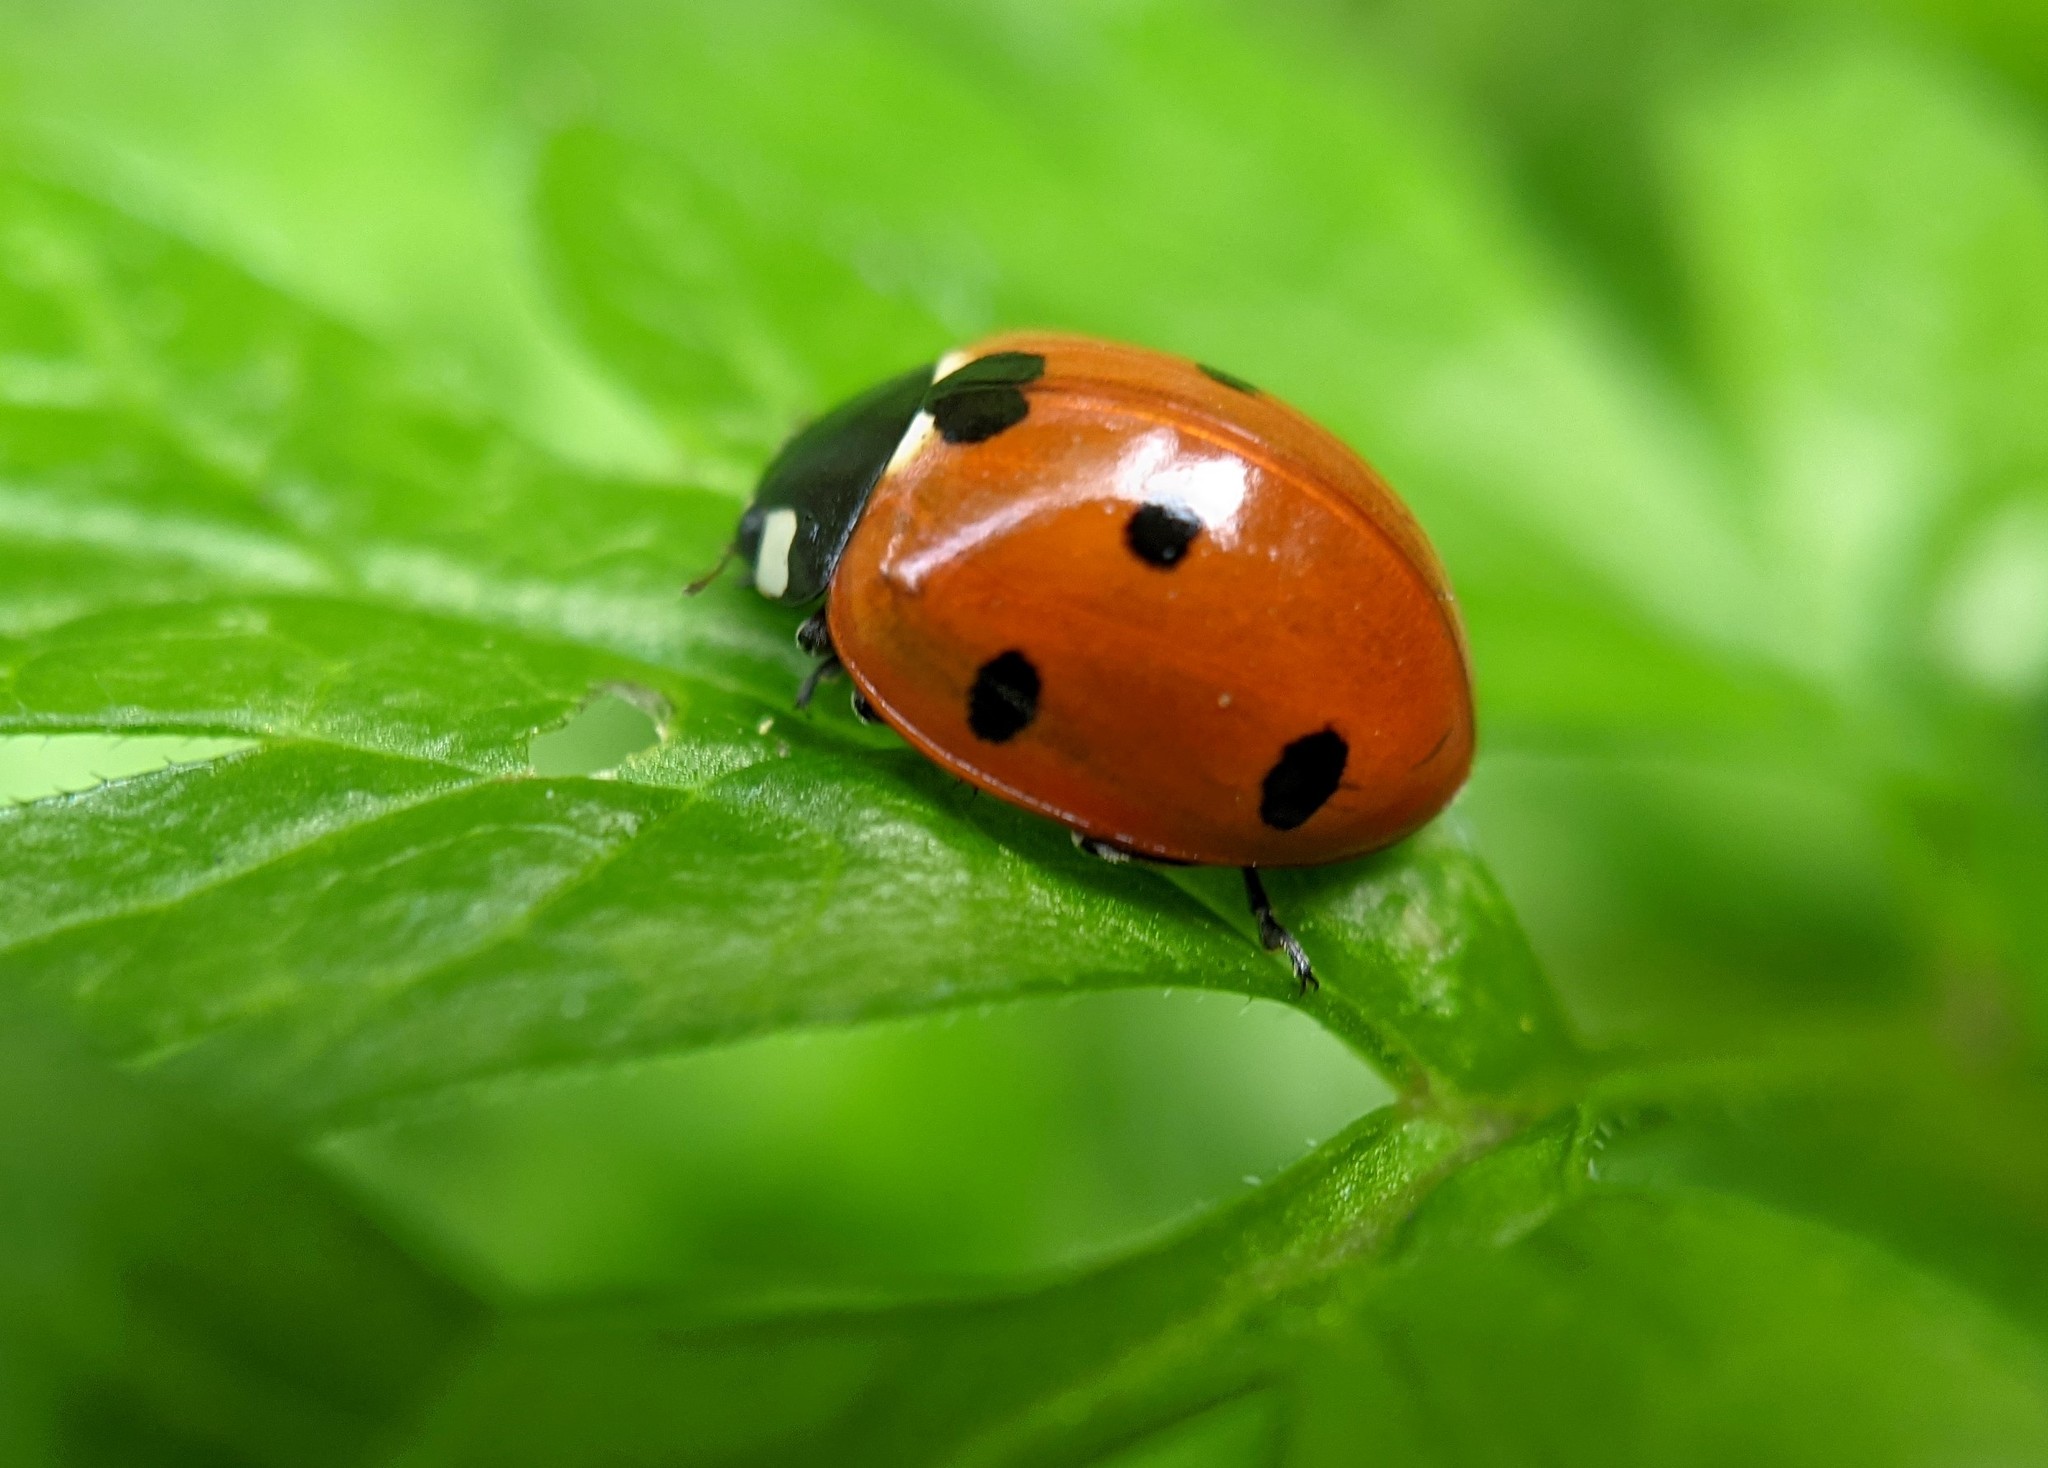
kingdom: Animalia
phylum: Arthropoda
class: Insecta
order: Coleoptera
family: Coccinellidae
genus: Coccinella
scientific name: Coccinella septempunctata
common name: Sevenspotted lady beetle
